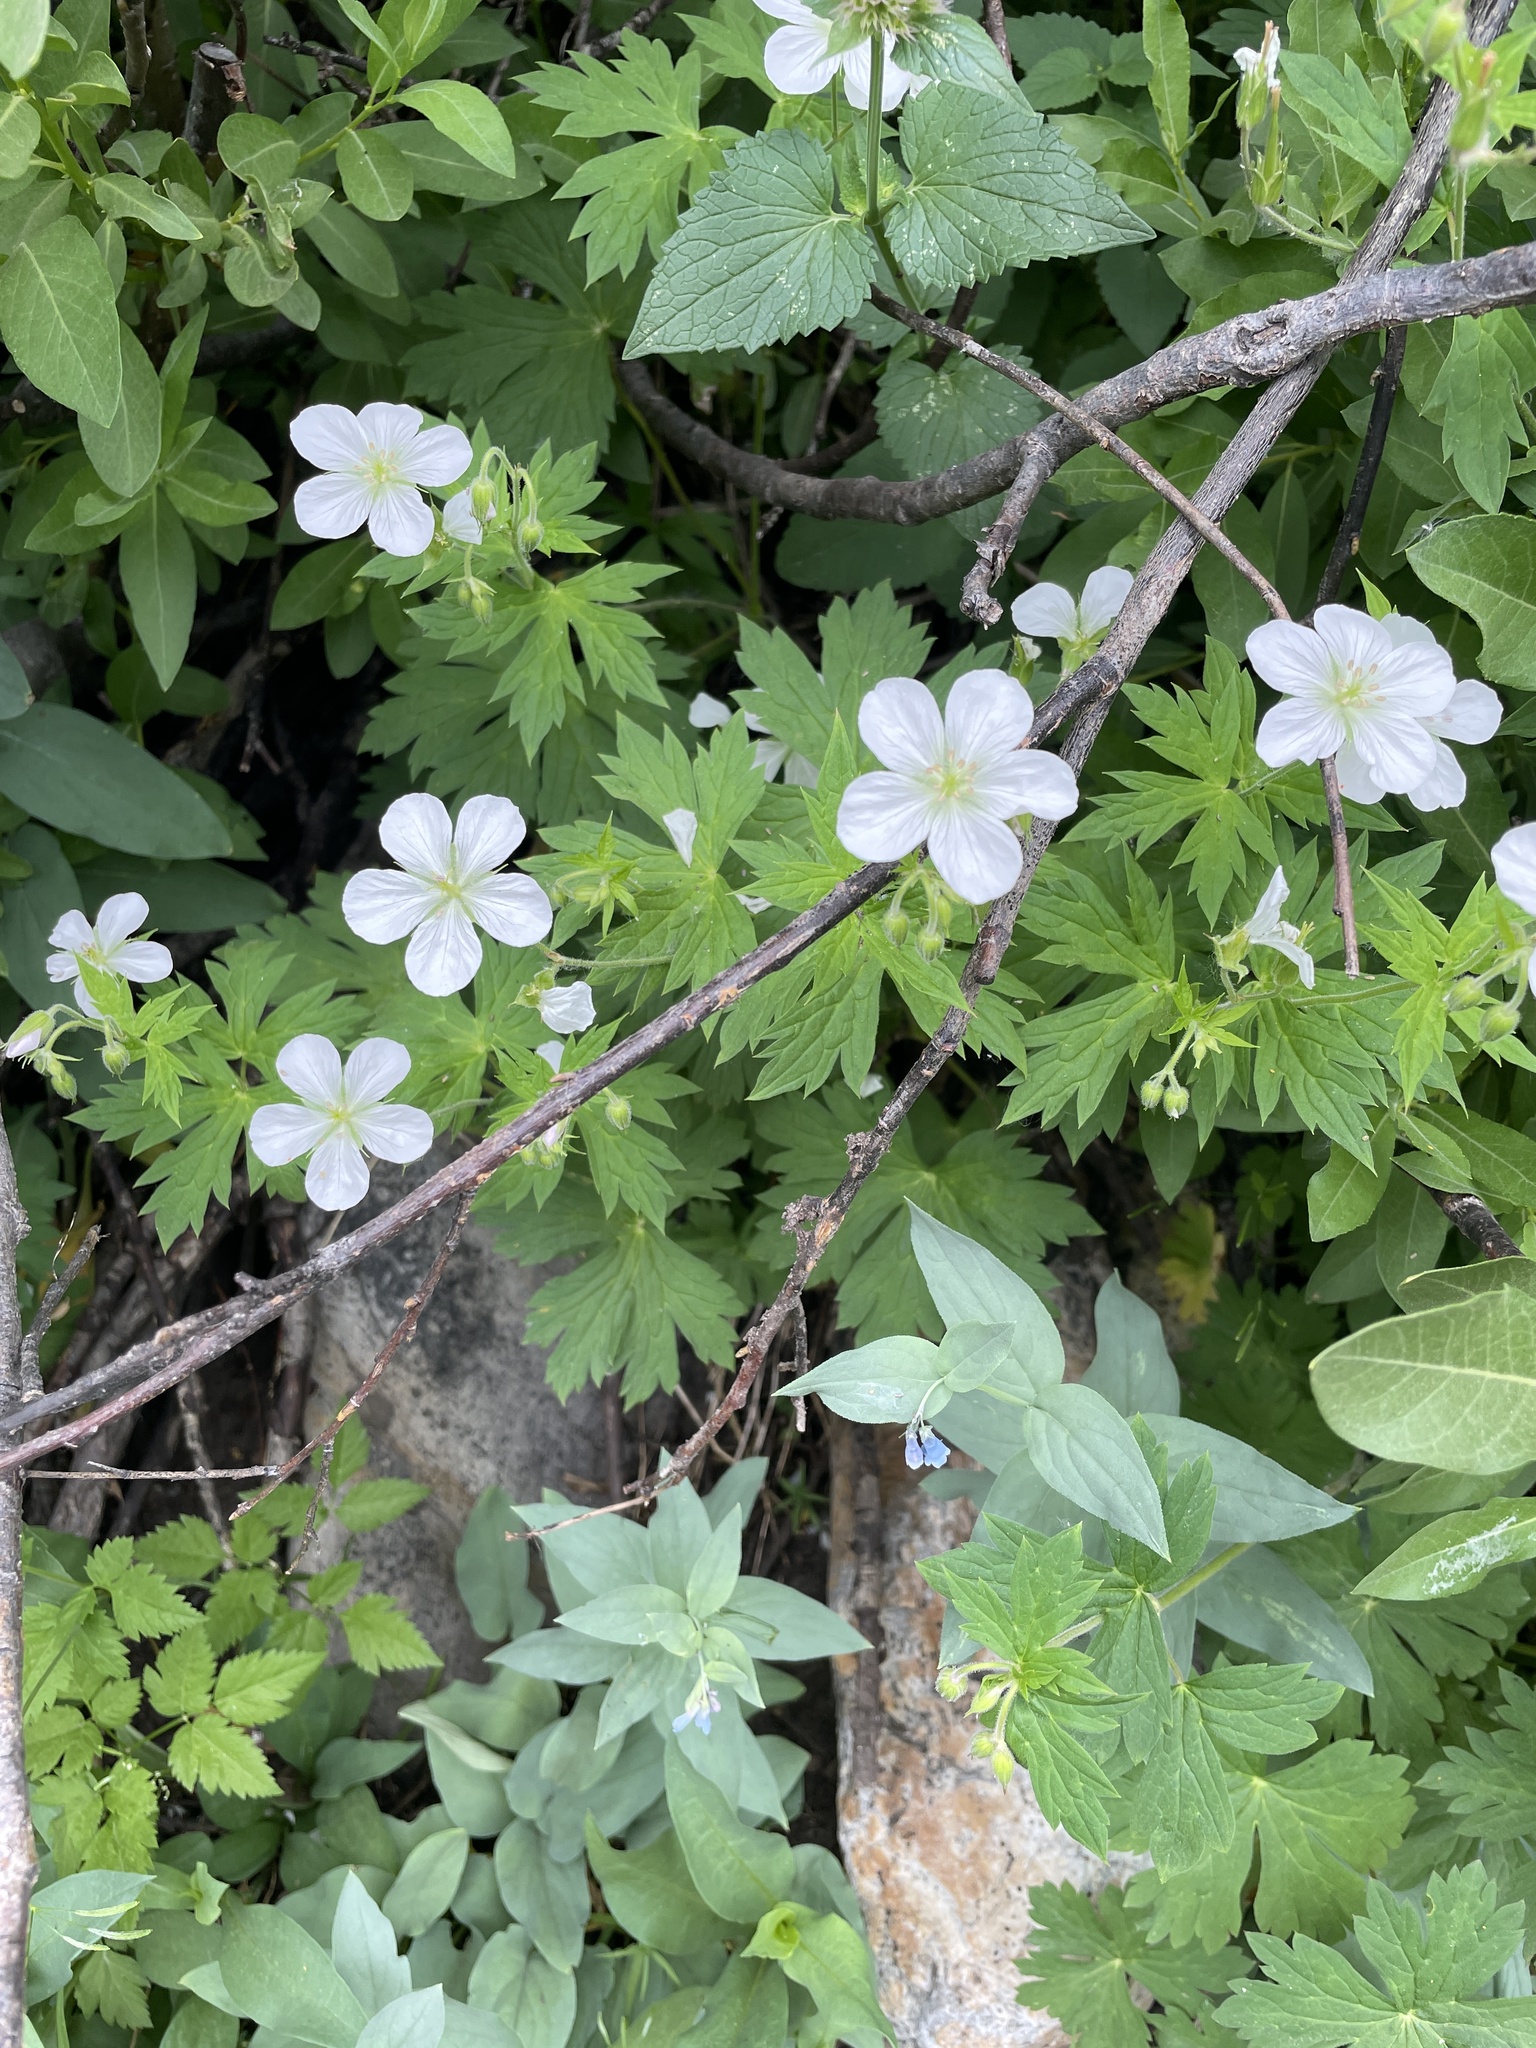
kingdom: Plantae
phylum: Tracheophyta
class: Magnoliopsida
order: Geraniales
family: Geraniaceae
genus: Geranium
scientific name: Geranium richardsonii
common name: Richardson's crane's-bill
